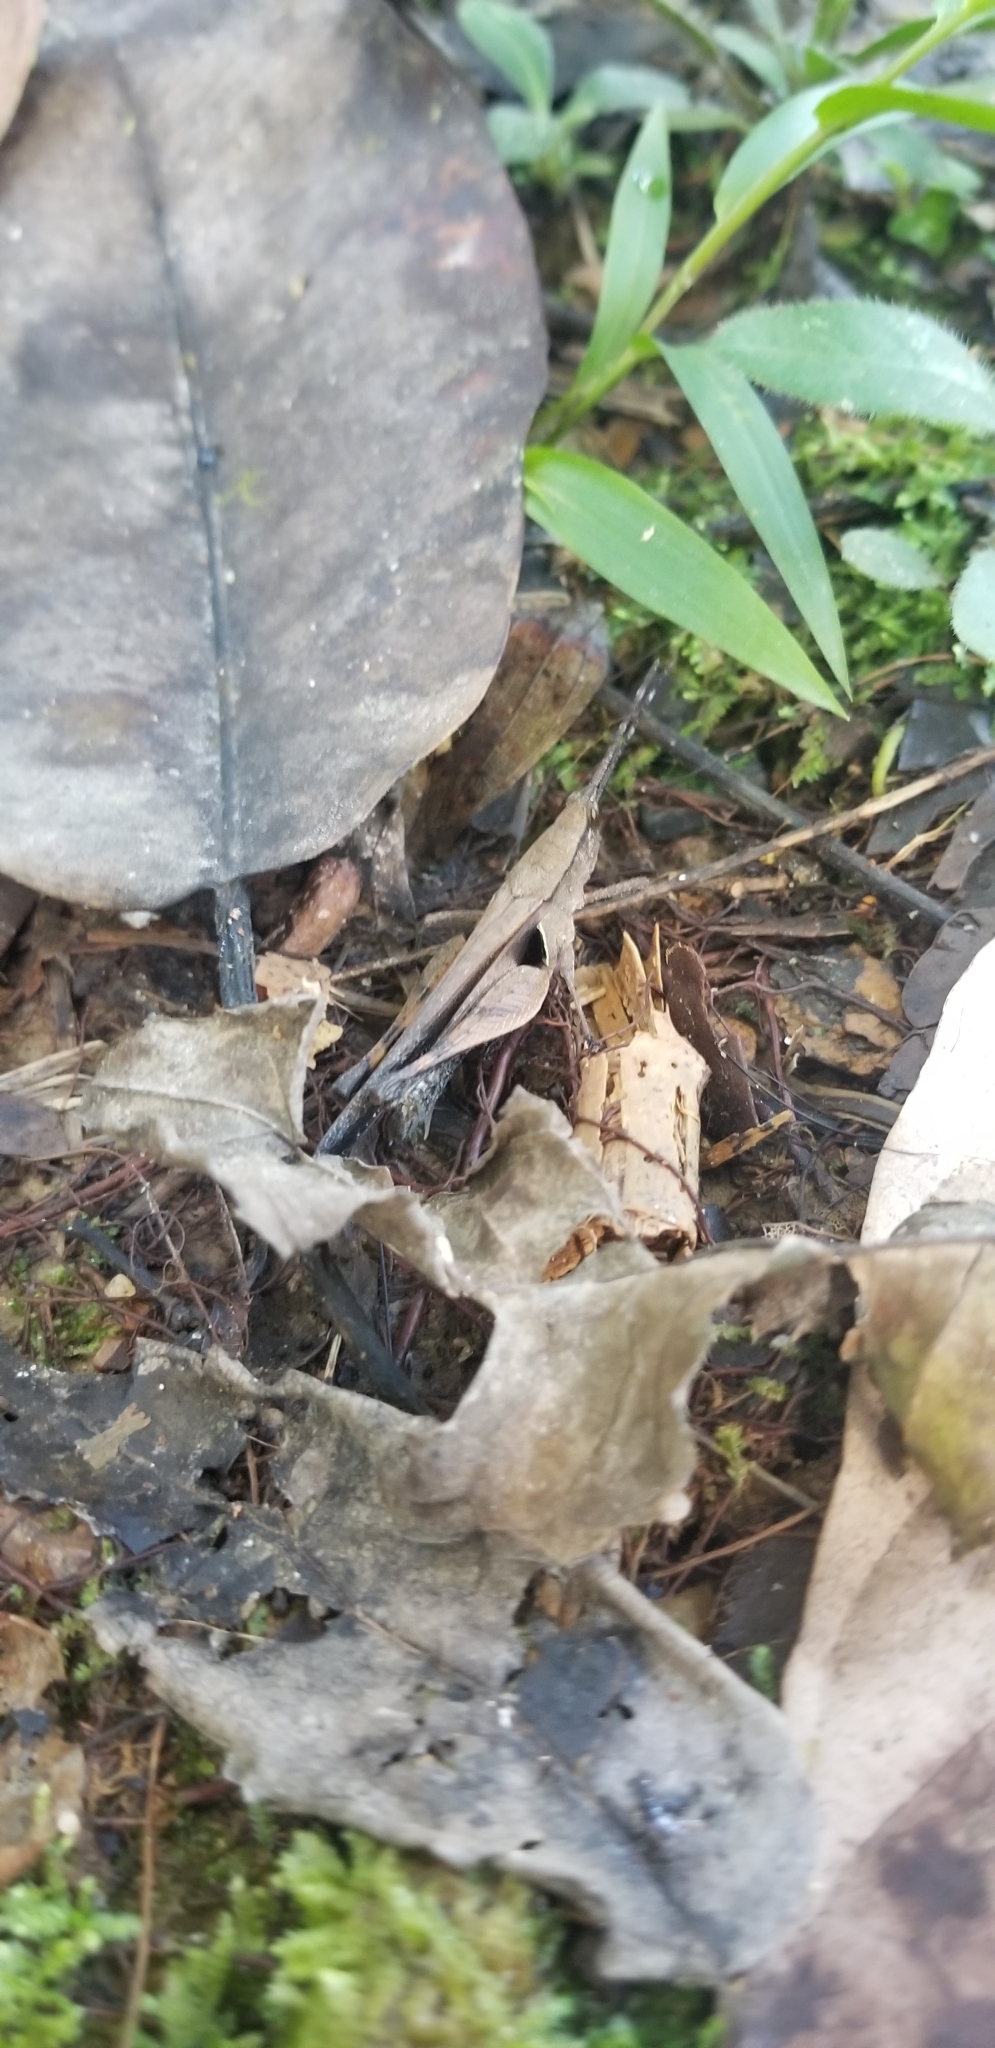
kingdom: Animalia
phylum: Arthropoda
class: Insecta
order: Orthoptera
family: Acrididae
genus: Xiphiola
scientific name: Xiphiola cyanoptera
